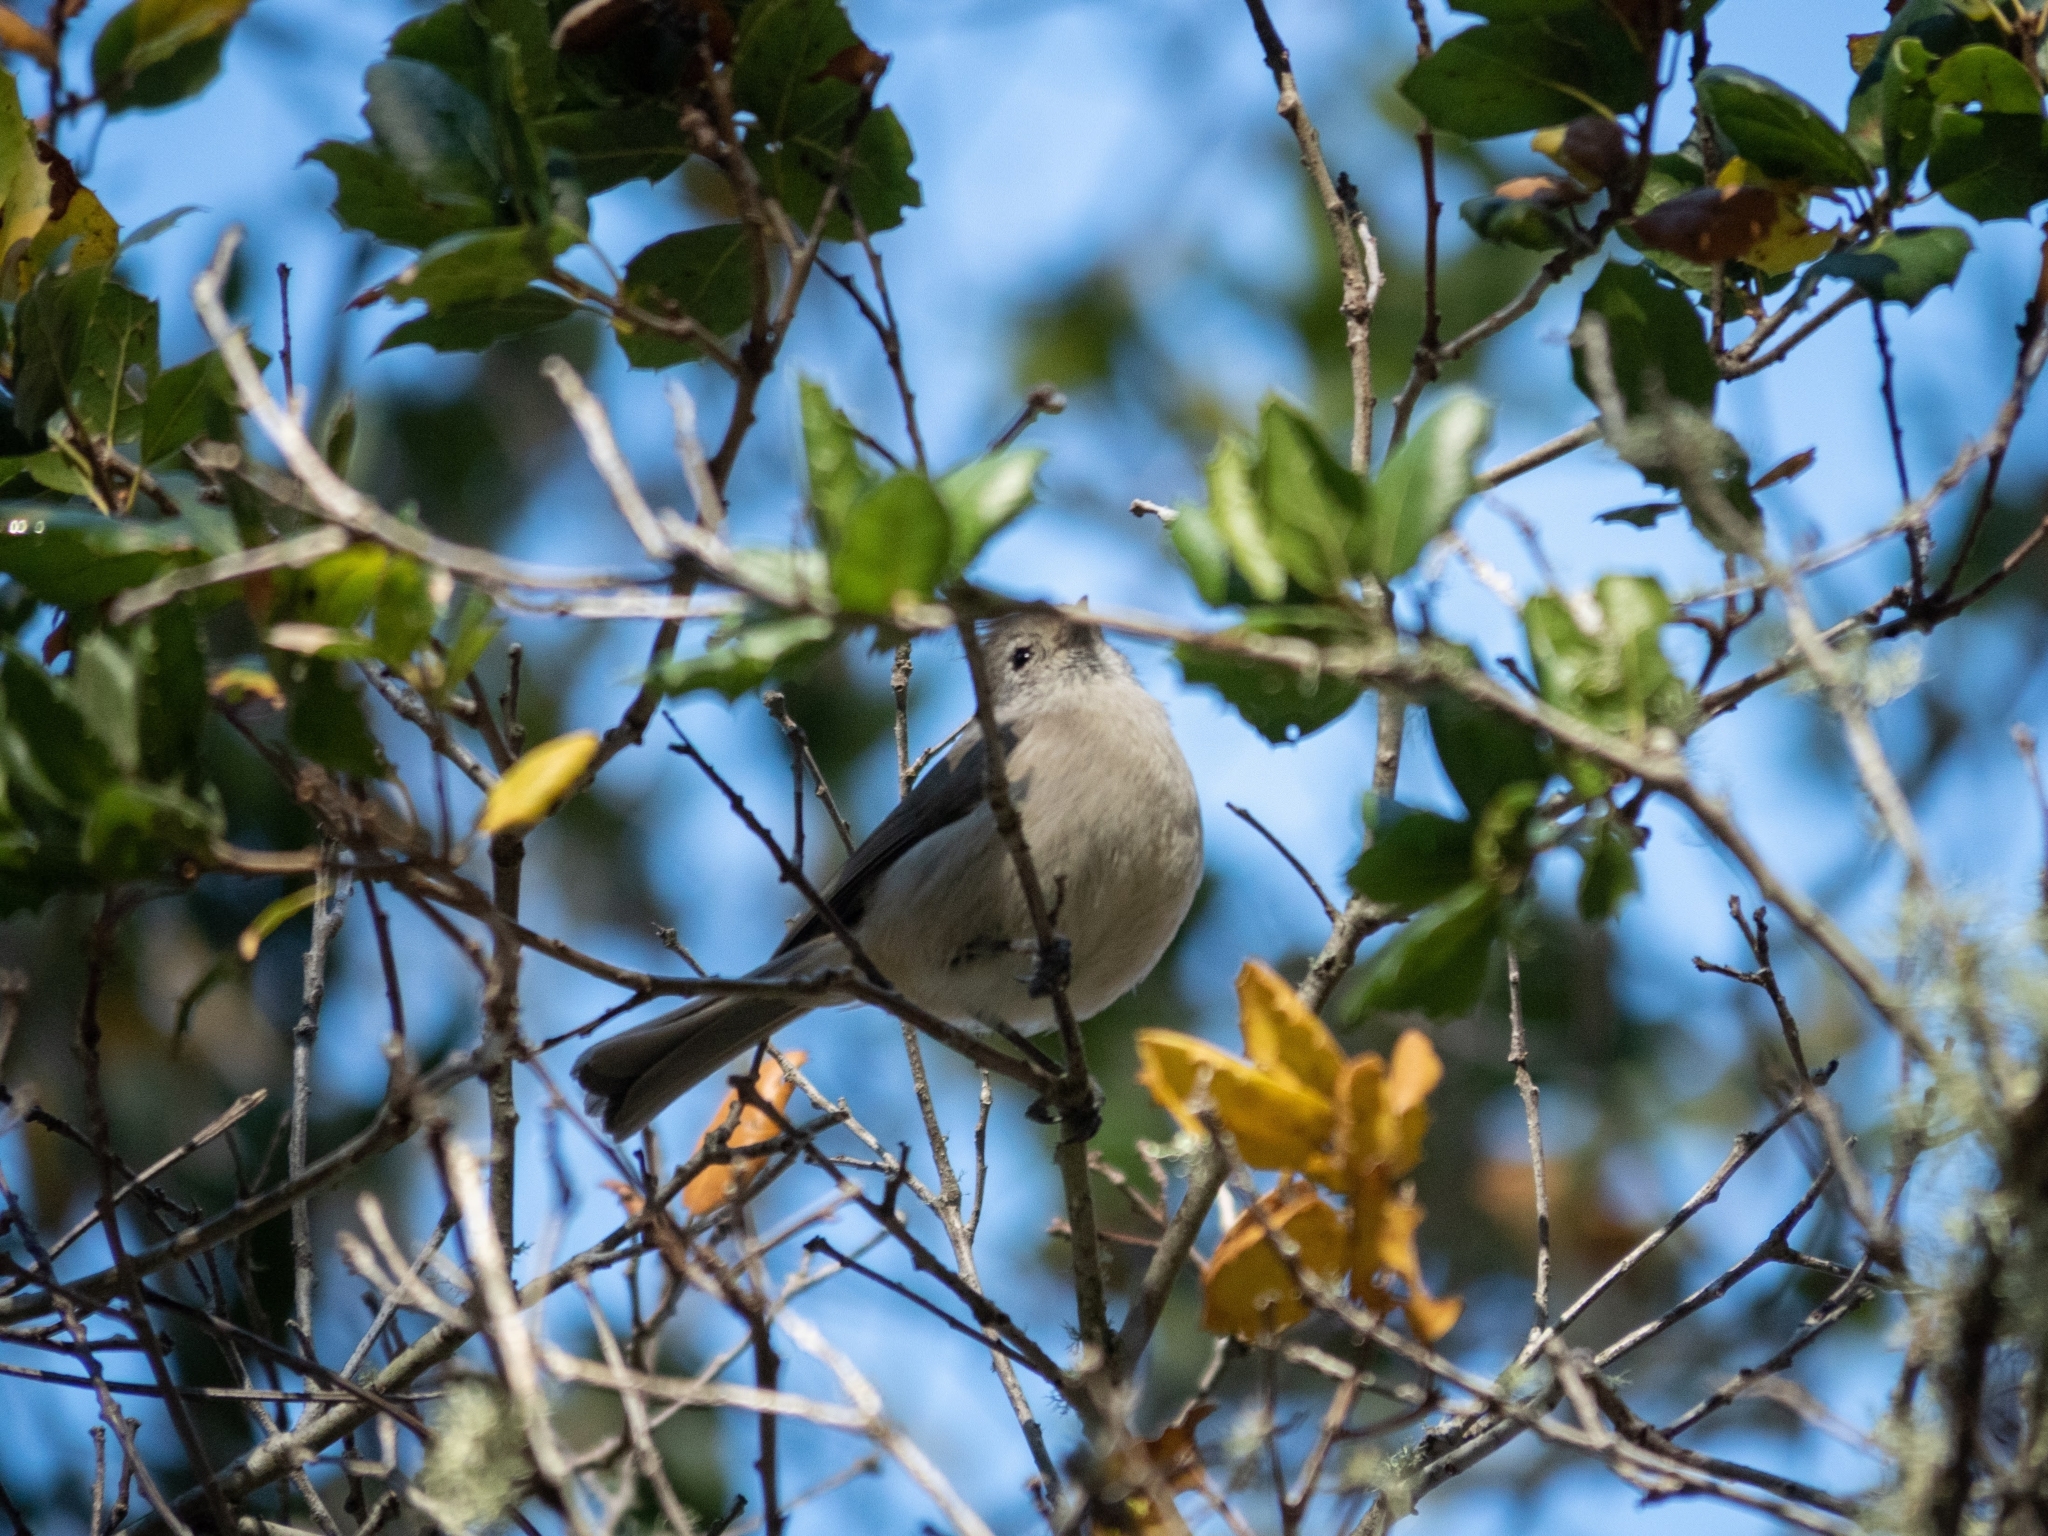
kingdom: Animalia
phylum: Chordata
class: Aves
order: Passeriformes
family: Paridae
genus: Baeolophus
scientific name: Baeolophus inornatus
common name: Oak titmouse
